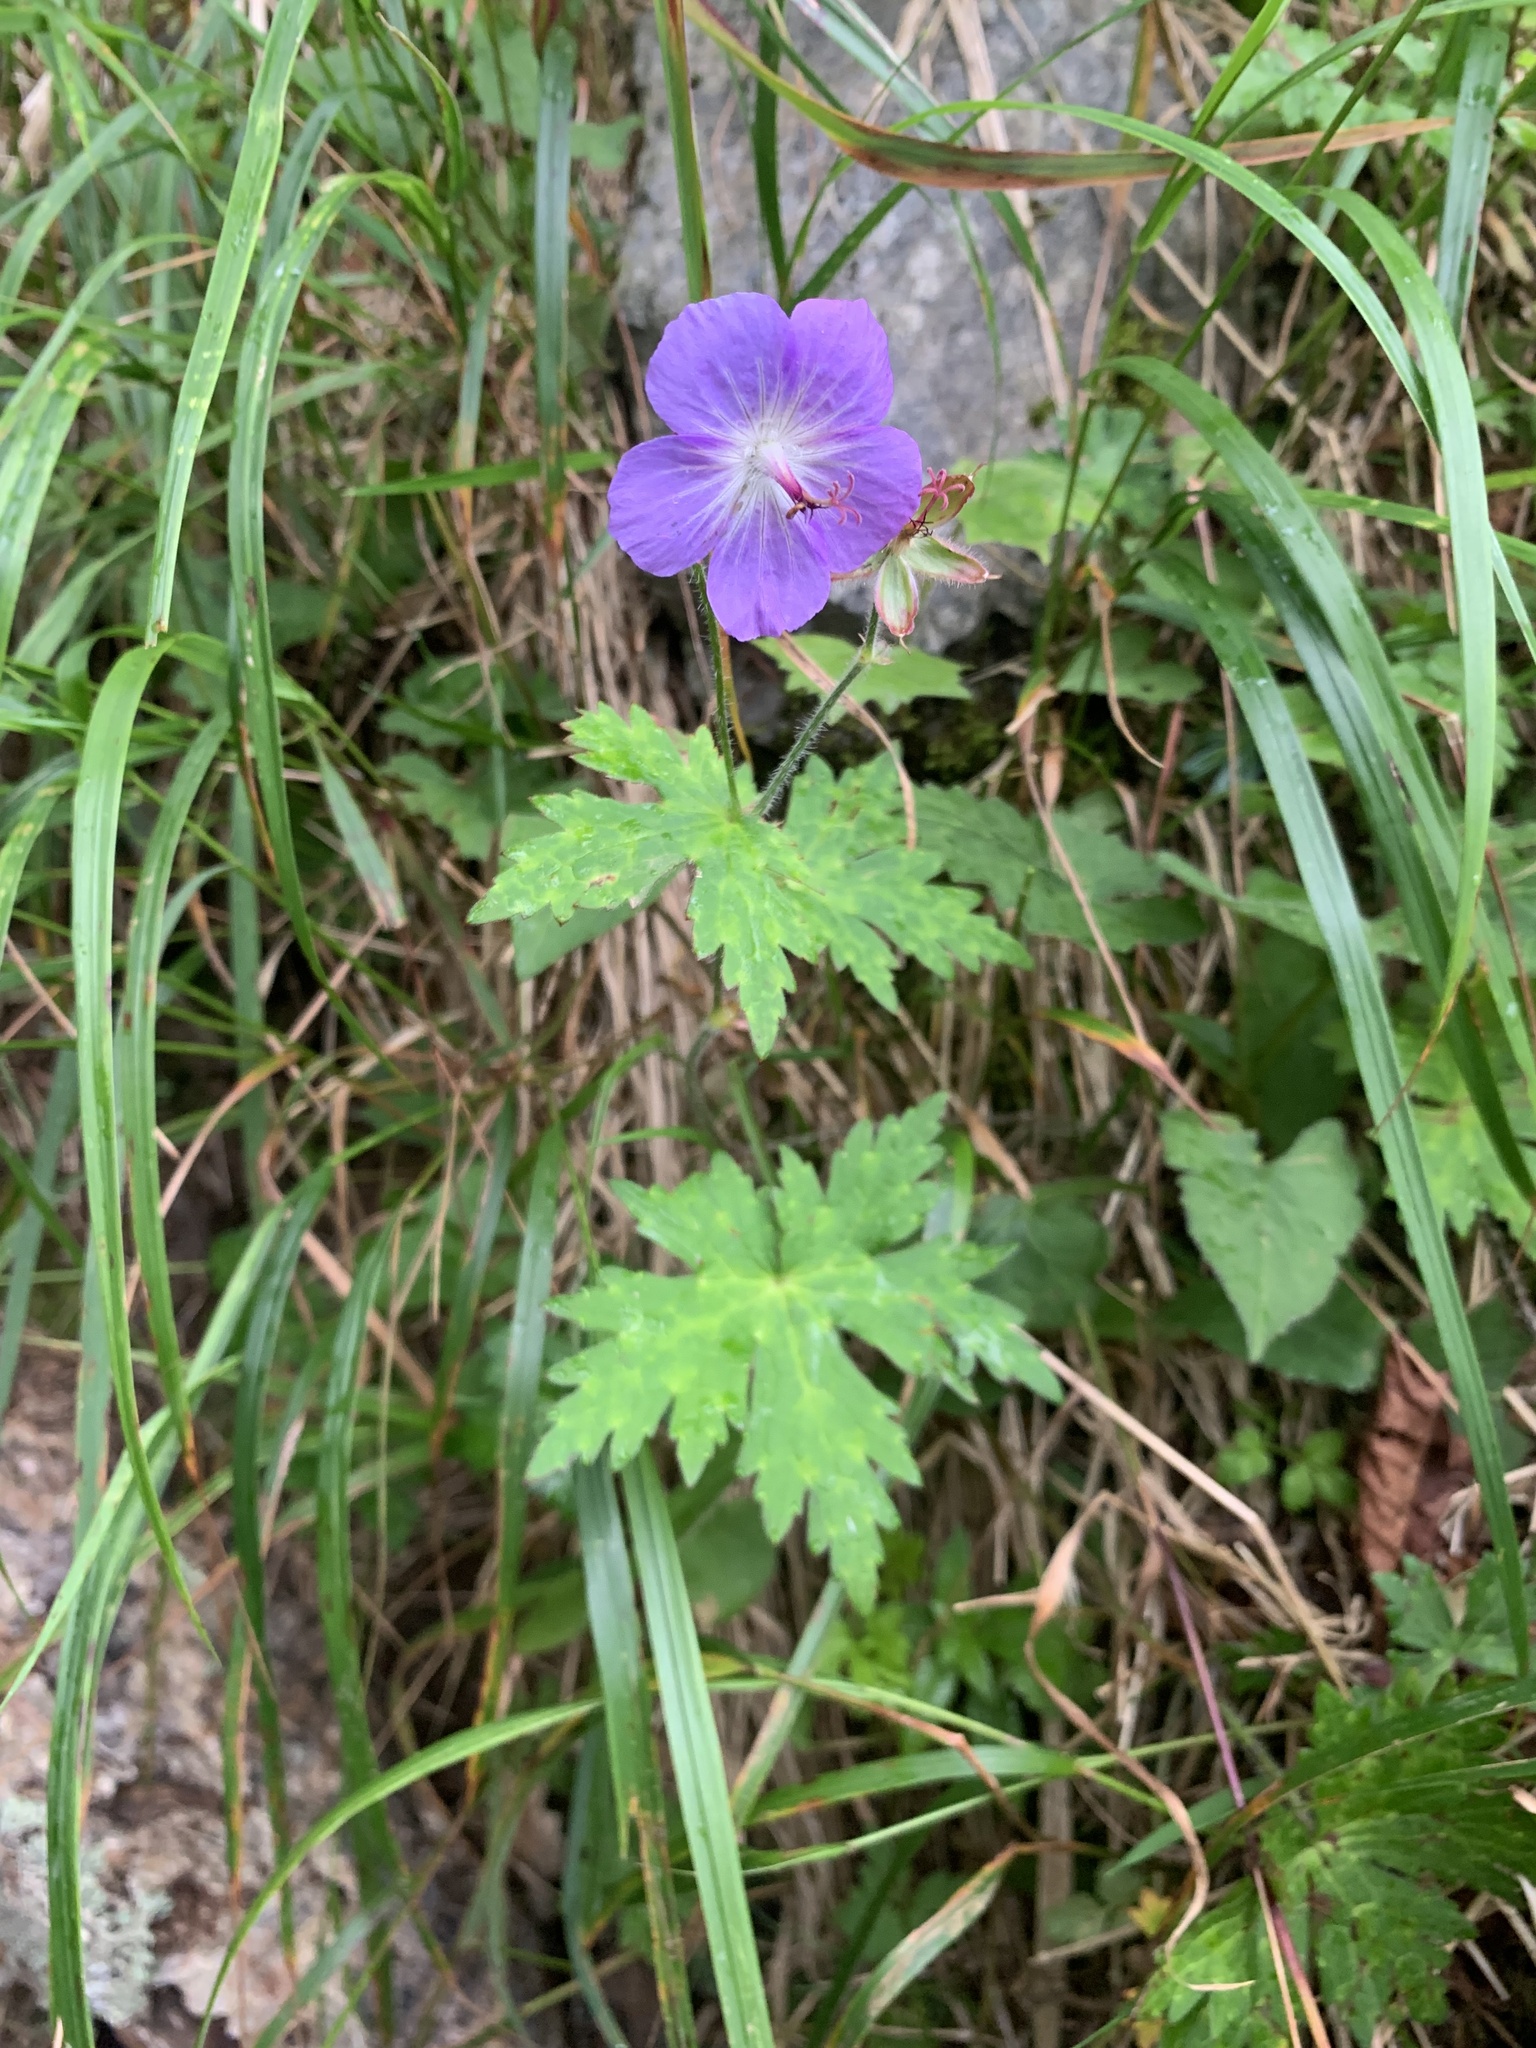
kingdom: Plantae
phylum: Tracheophyta
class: Magnoliopsida
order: Geraniales
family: Geraniaceae
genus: Geranium
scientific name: Geranium reinii
